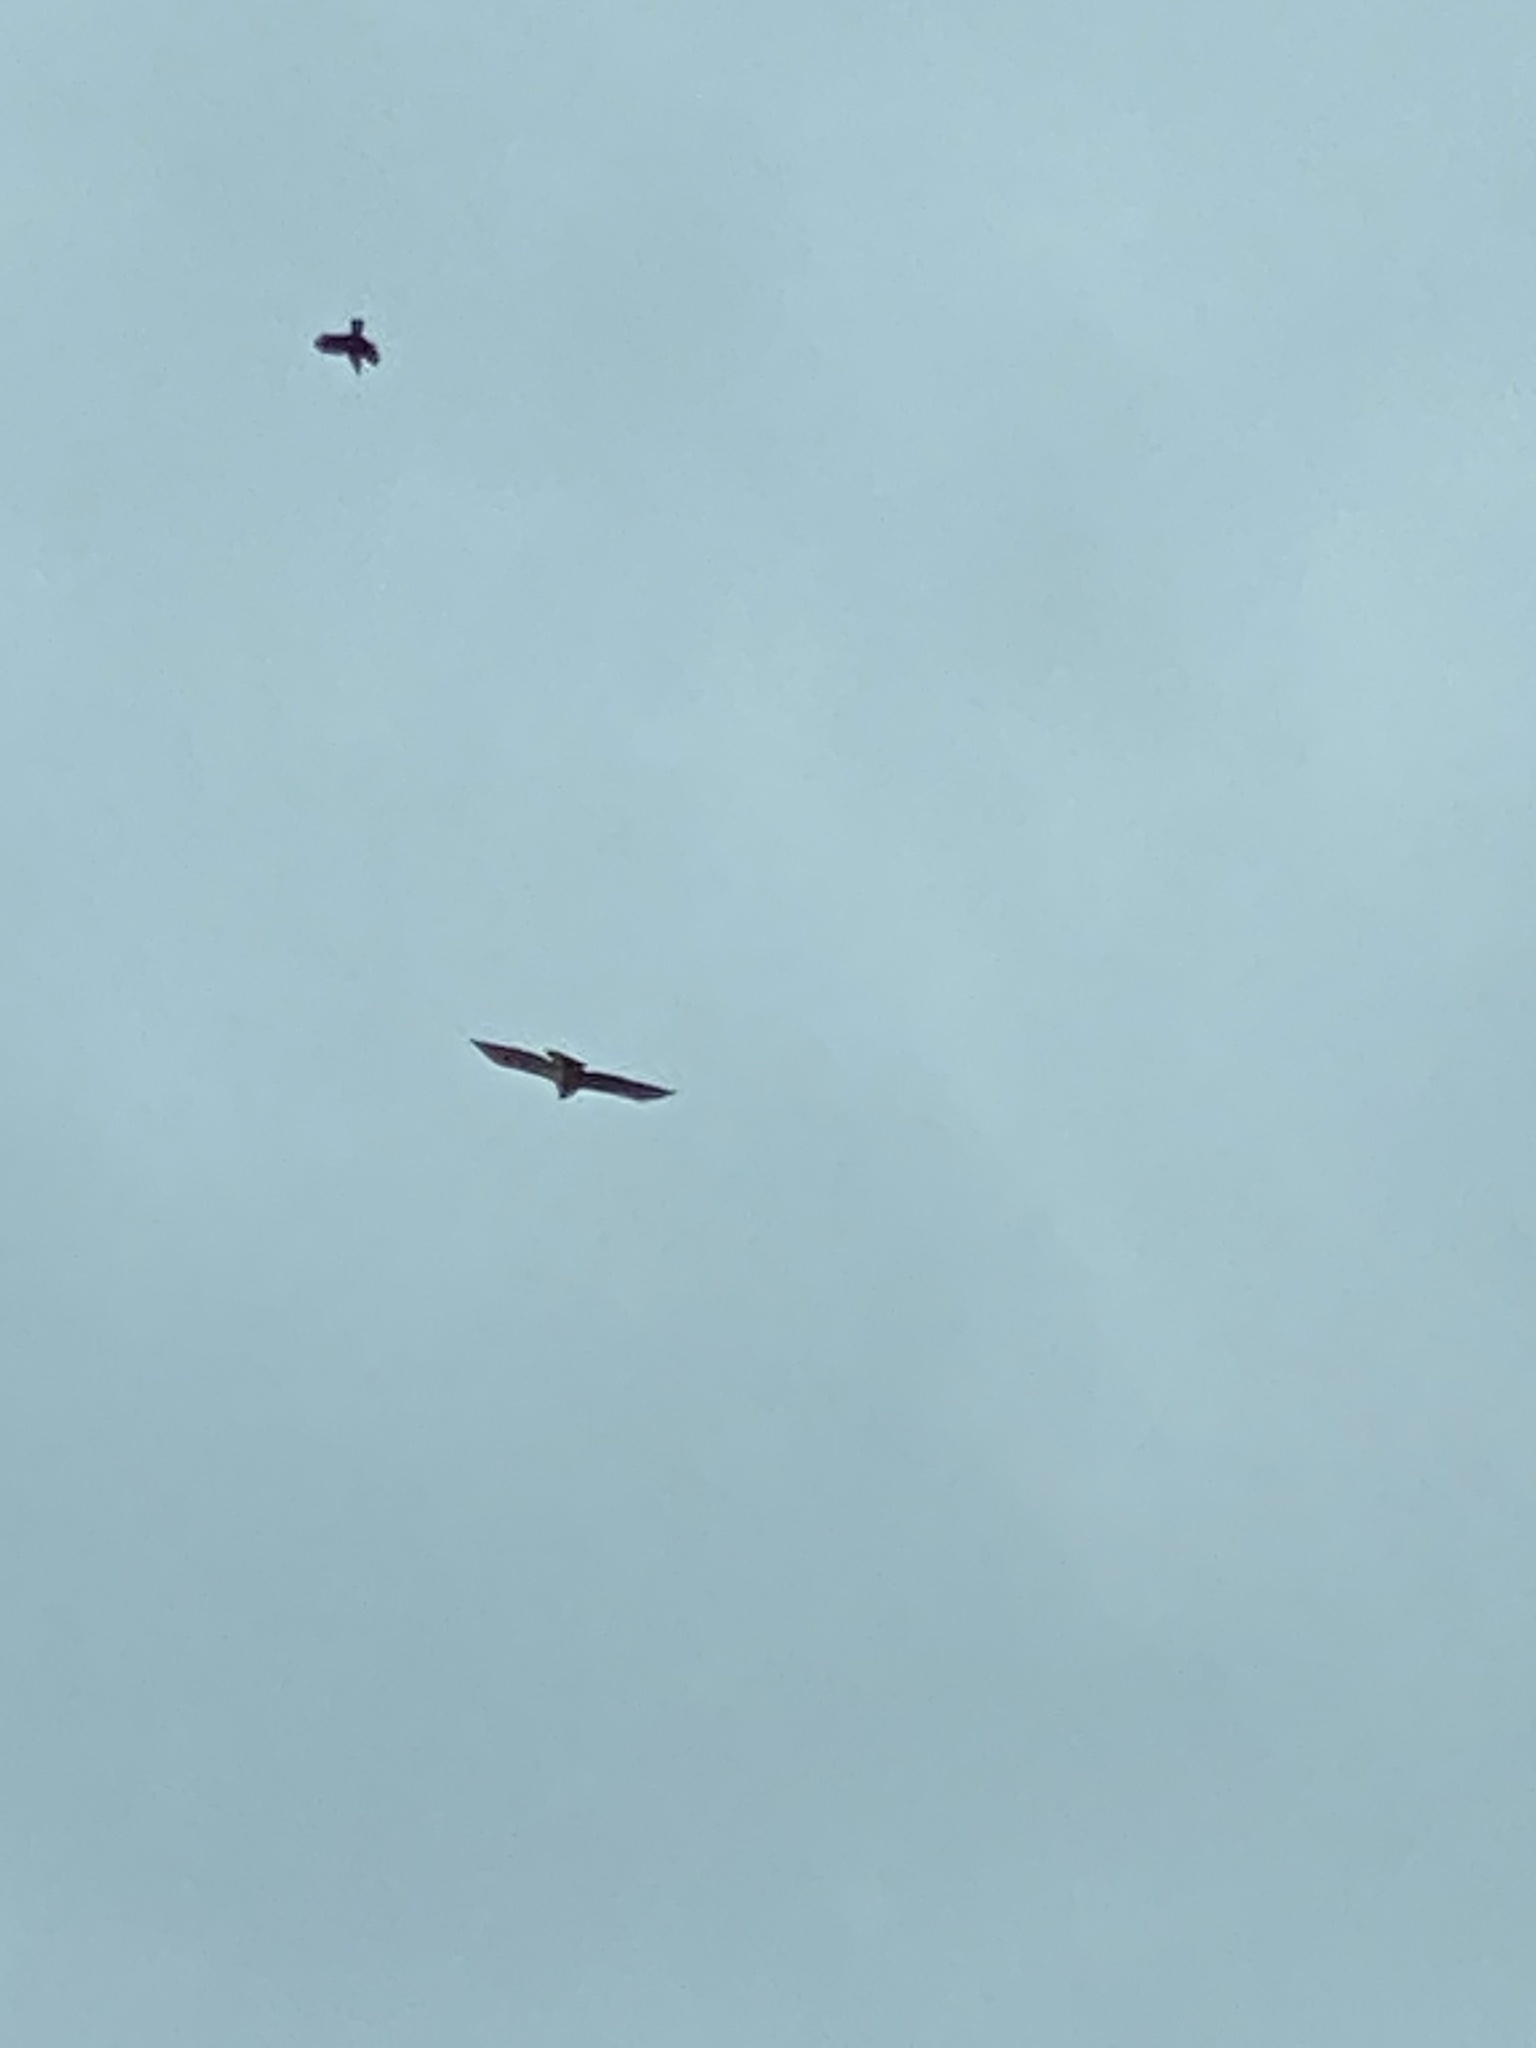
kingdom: Animalia
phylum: Chordata
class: Aves
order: Accipitriformes
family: Accipitridae
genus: Buteo
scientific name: Buteo jamaicensis
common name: Red-tailed hawk
